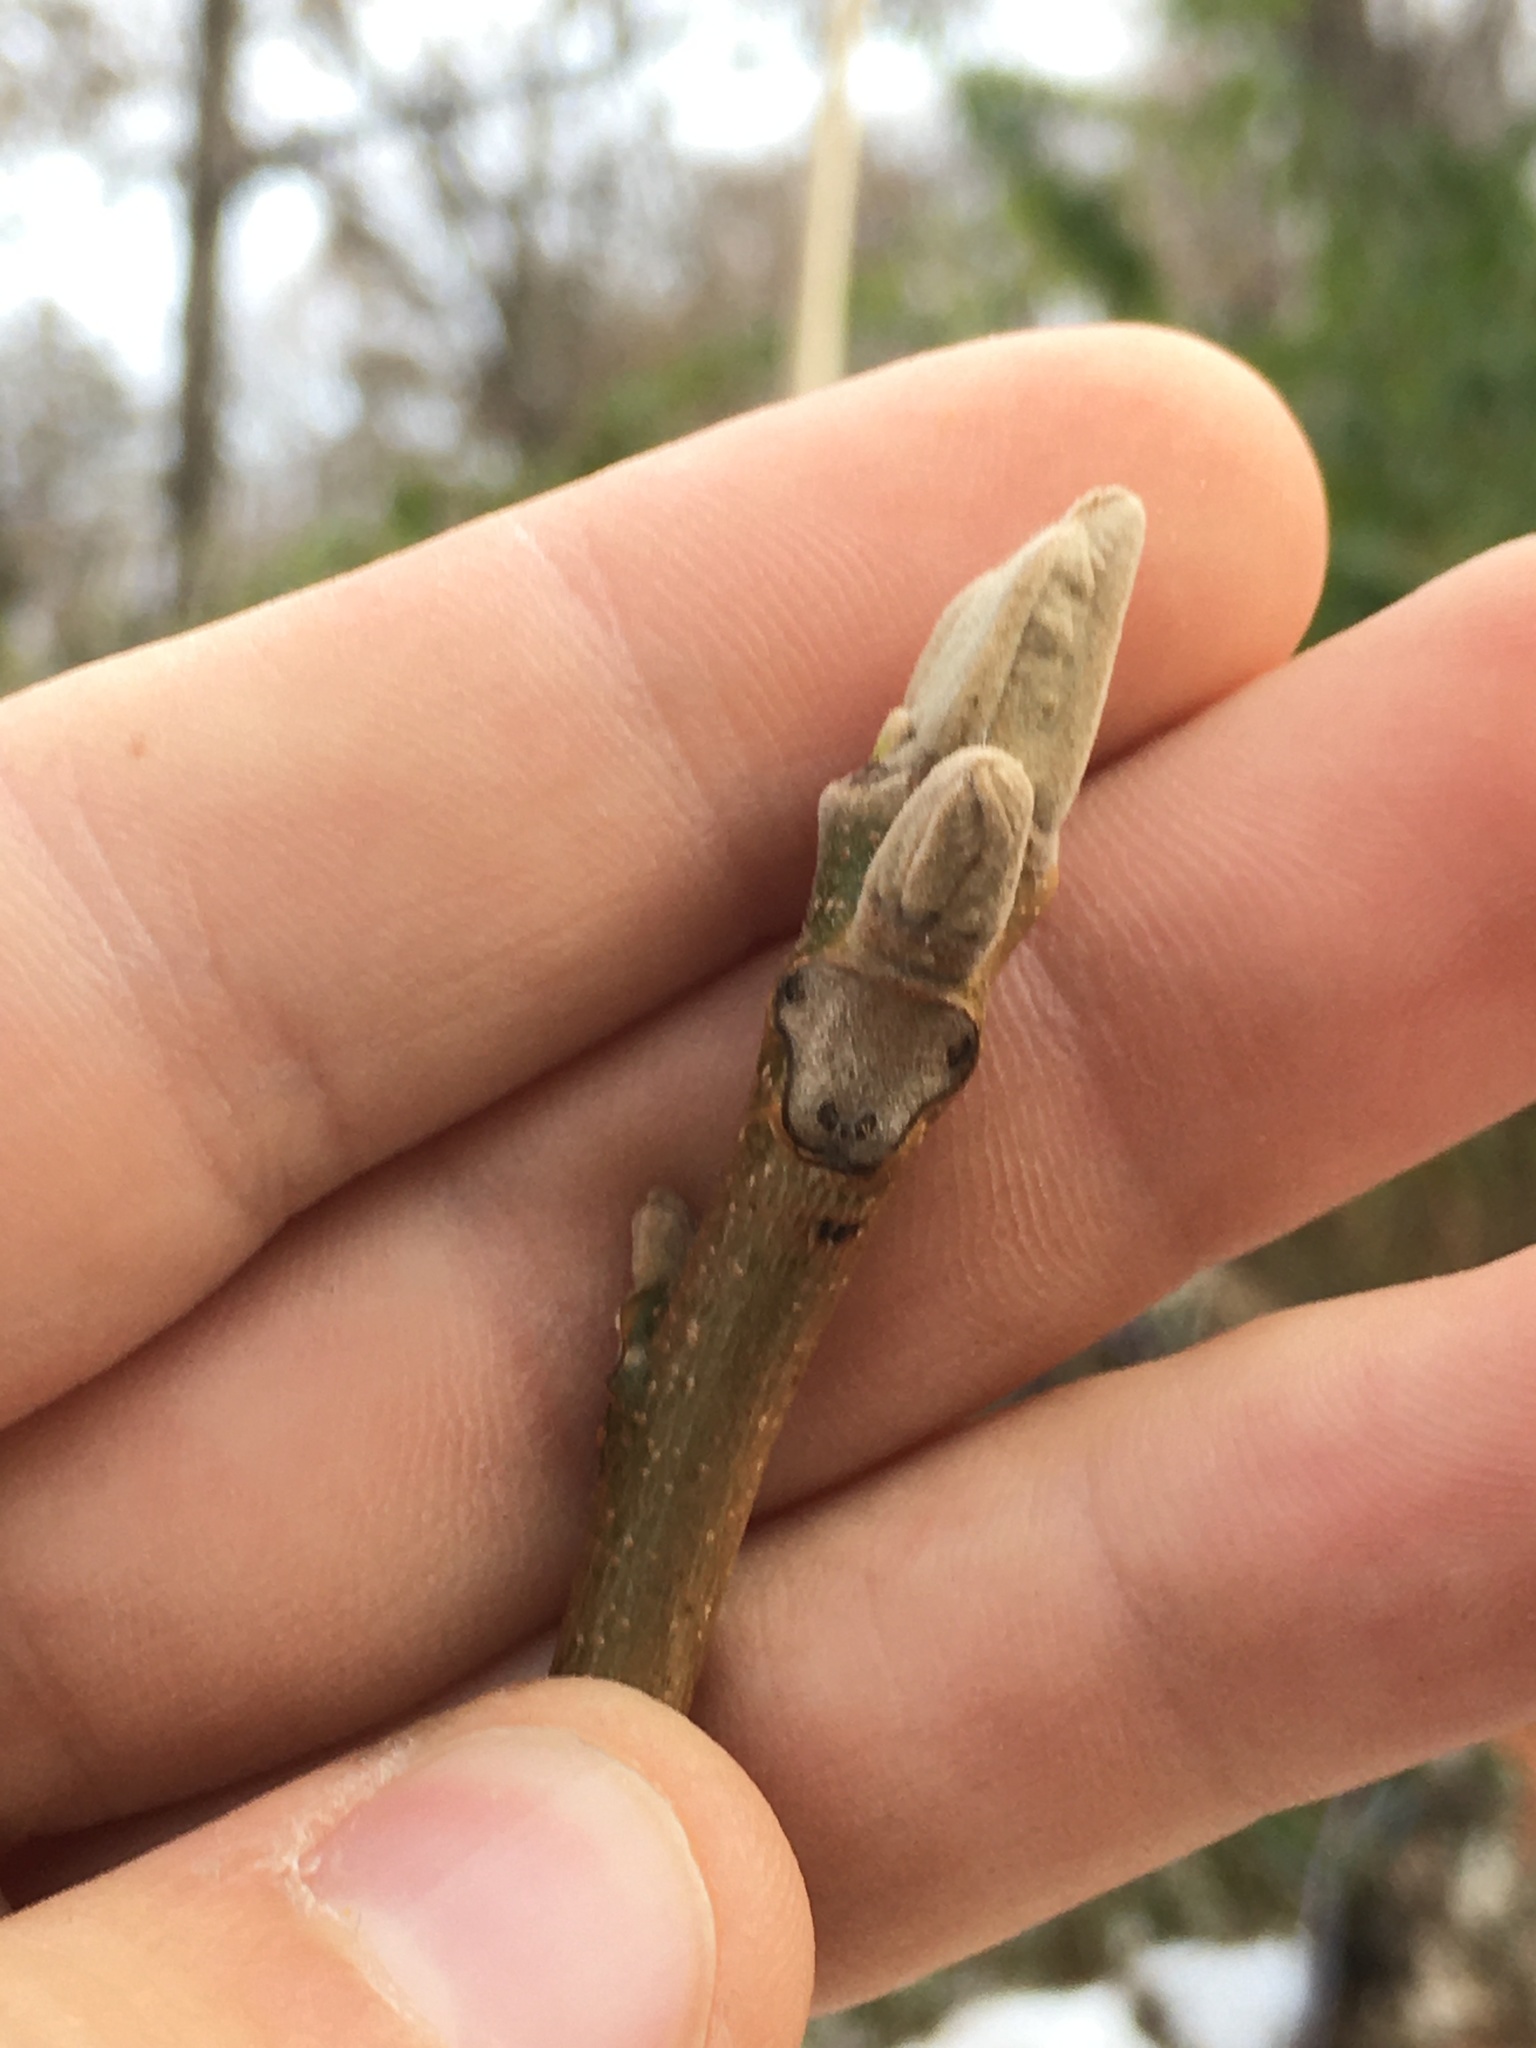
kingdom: Plantae
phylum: Tracheophyta
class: Magnoliopsida
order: Fagales
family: Juglandaceae
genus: Juglans
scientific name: Juglans cinerea
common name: Butternut
